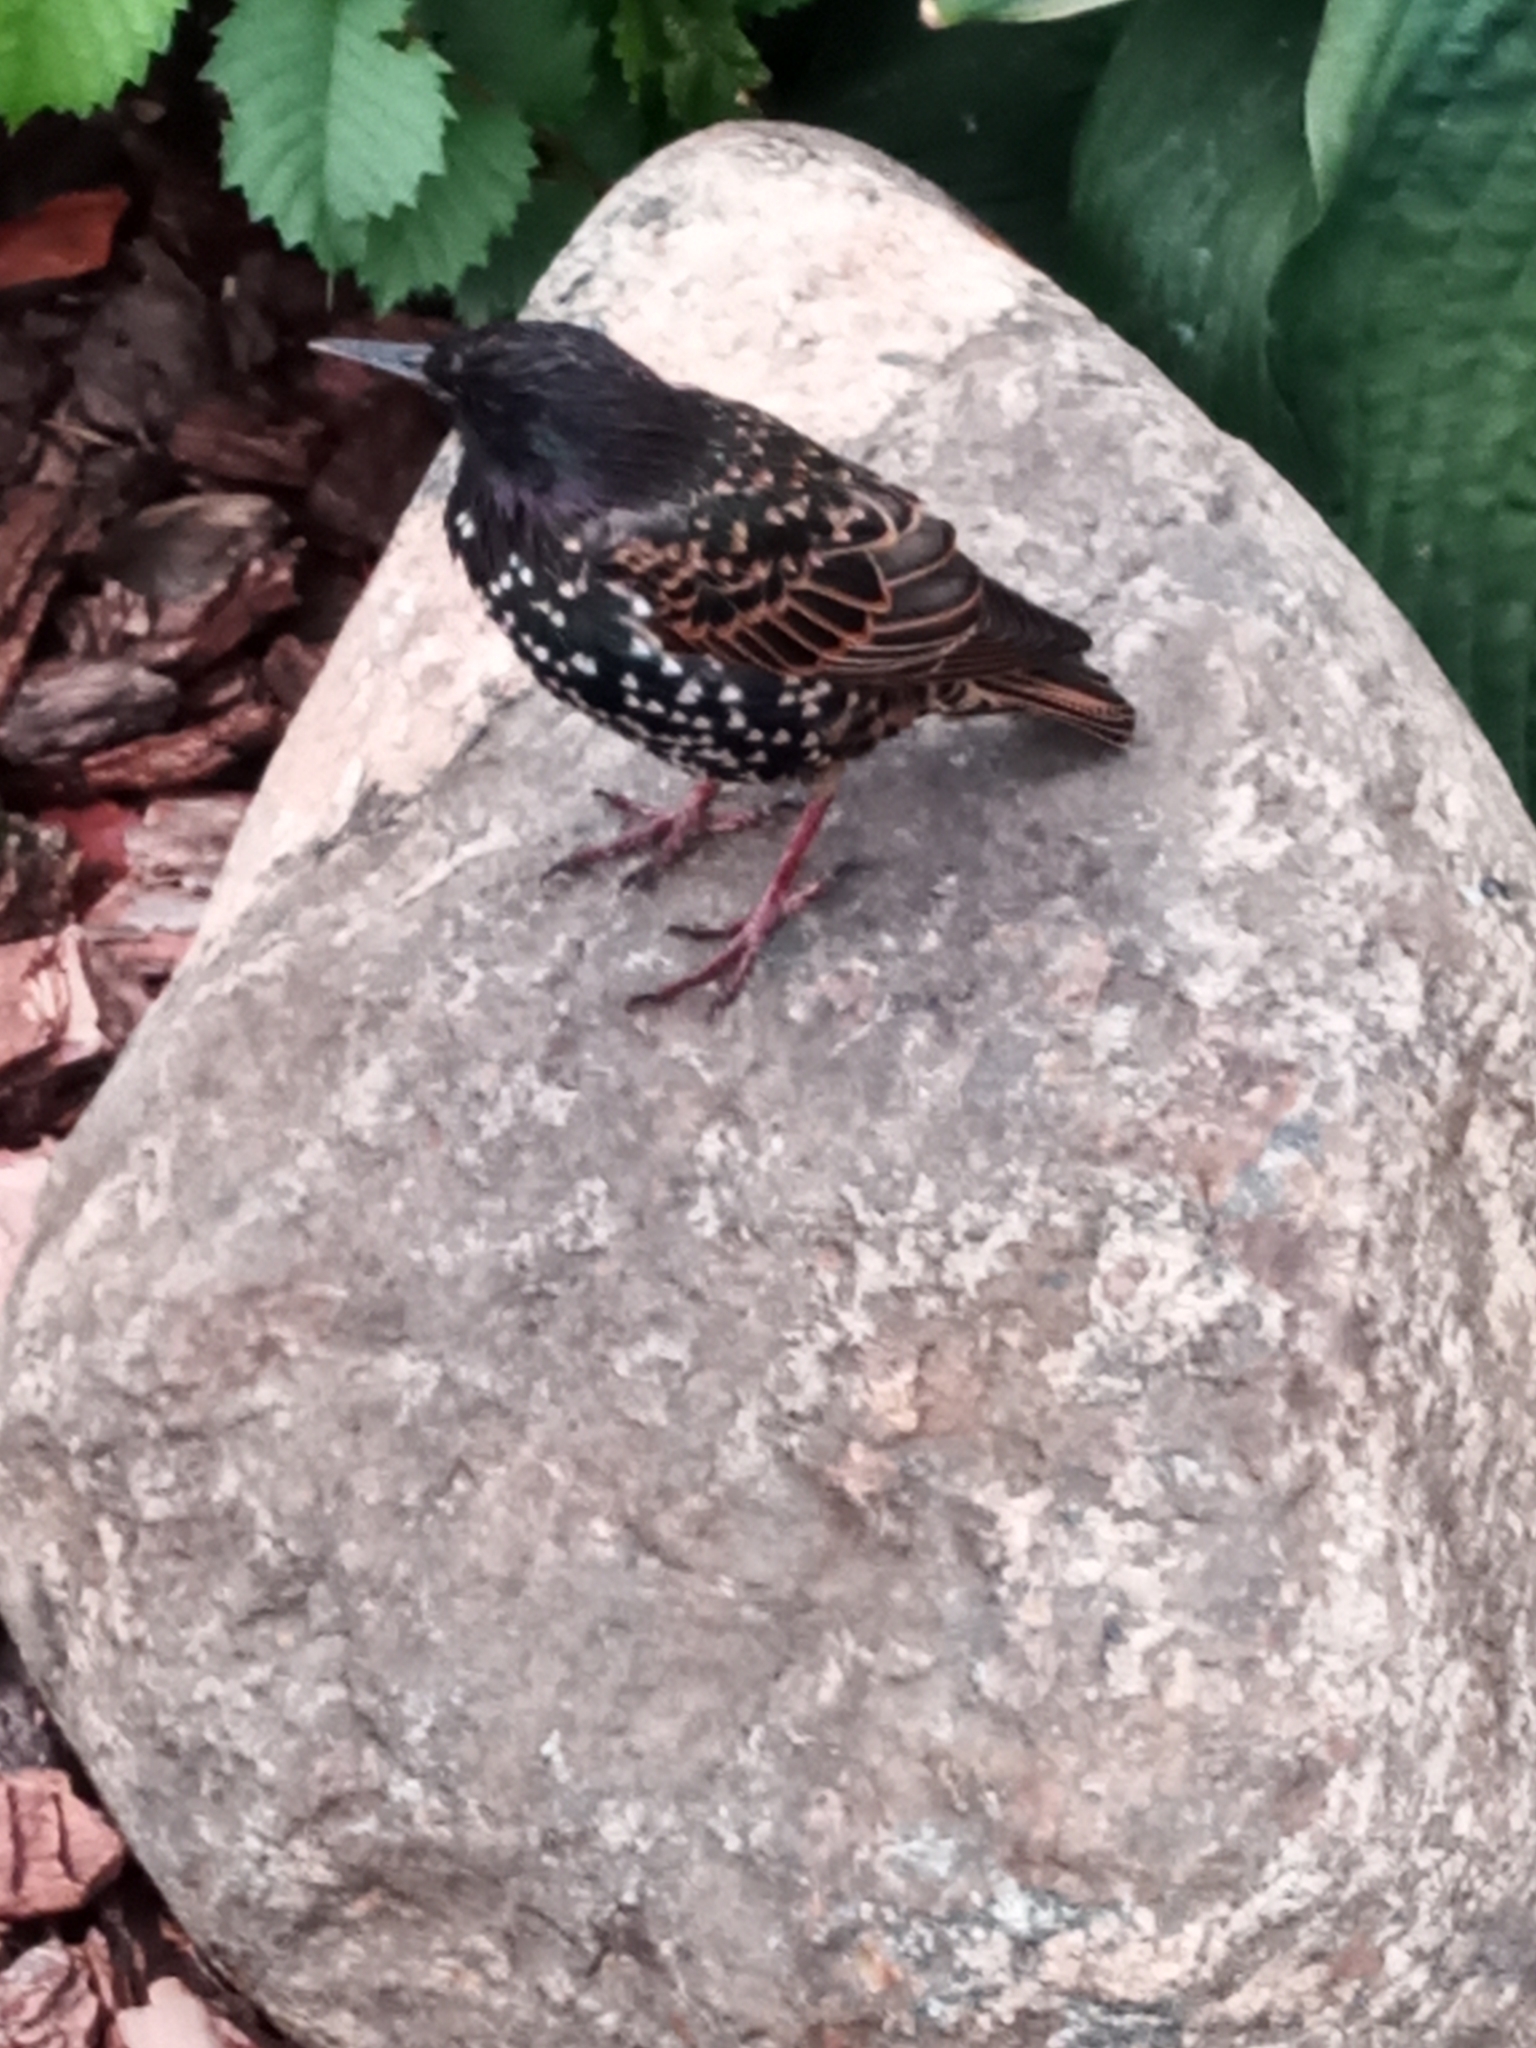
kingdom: Animalia
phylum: Chordata
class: Aves
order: Passeriformes
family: Sturnidae
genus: Sturnus
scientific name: Sturnus vulgaris
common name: Common starling
